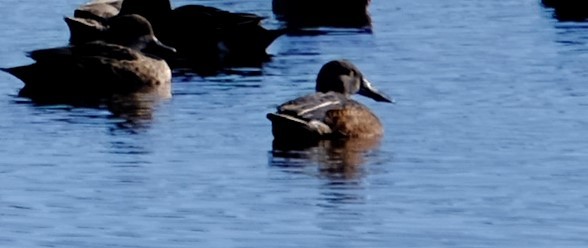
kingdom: Animalia
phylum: Chordata
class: Aves
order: Anseriformes
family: Anatidae
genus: Spatula
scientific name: Spatula rhynchotis
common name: Australian shoveler
